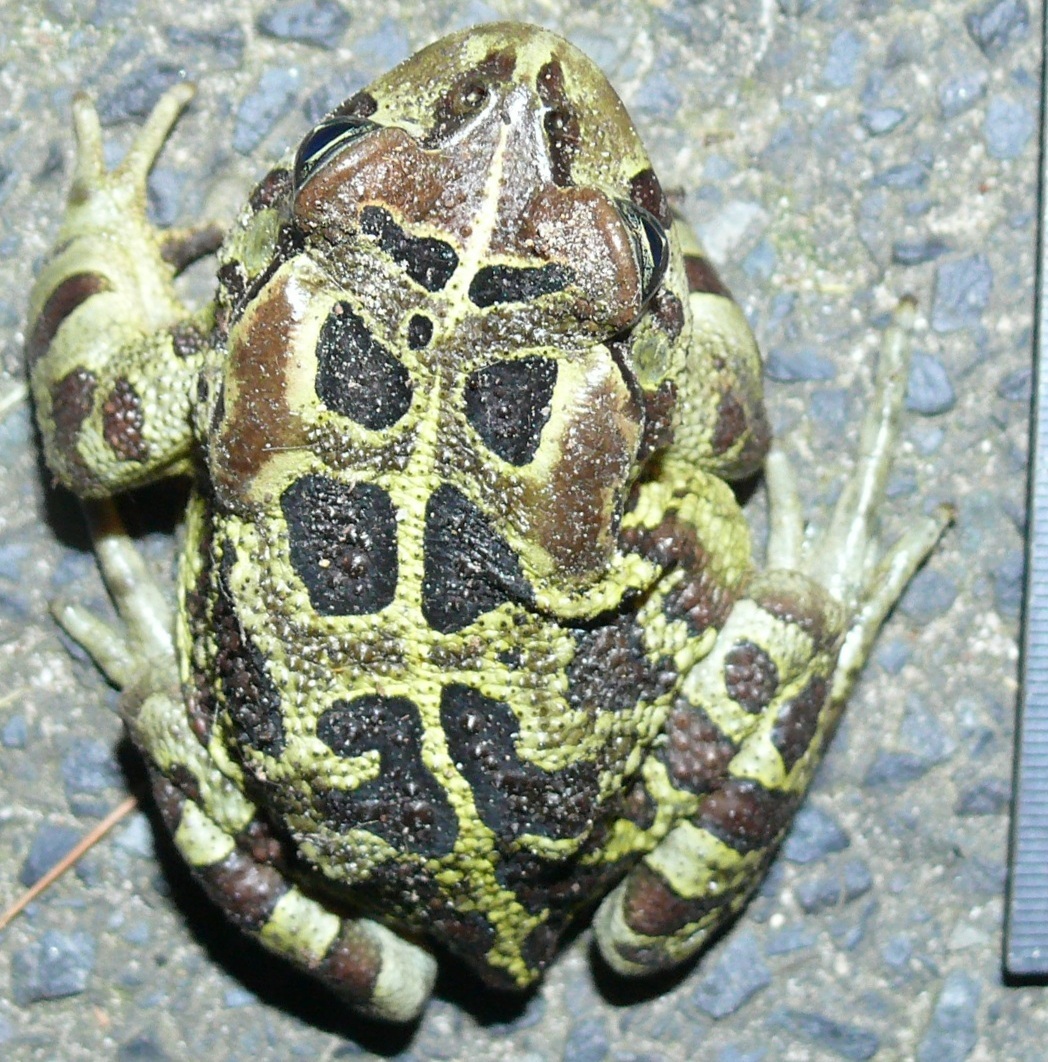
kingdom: Animalia
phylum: Chordata
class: Amphibia
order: Anura
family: Bufonidae
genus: Sclerophrys
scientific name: Sclerophrys pantherina
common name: Panther toad
